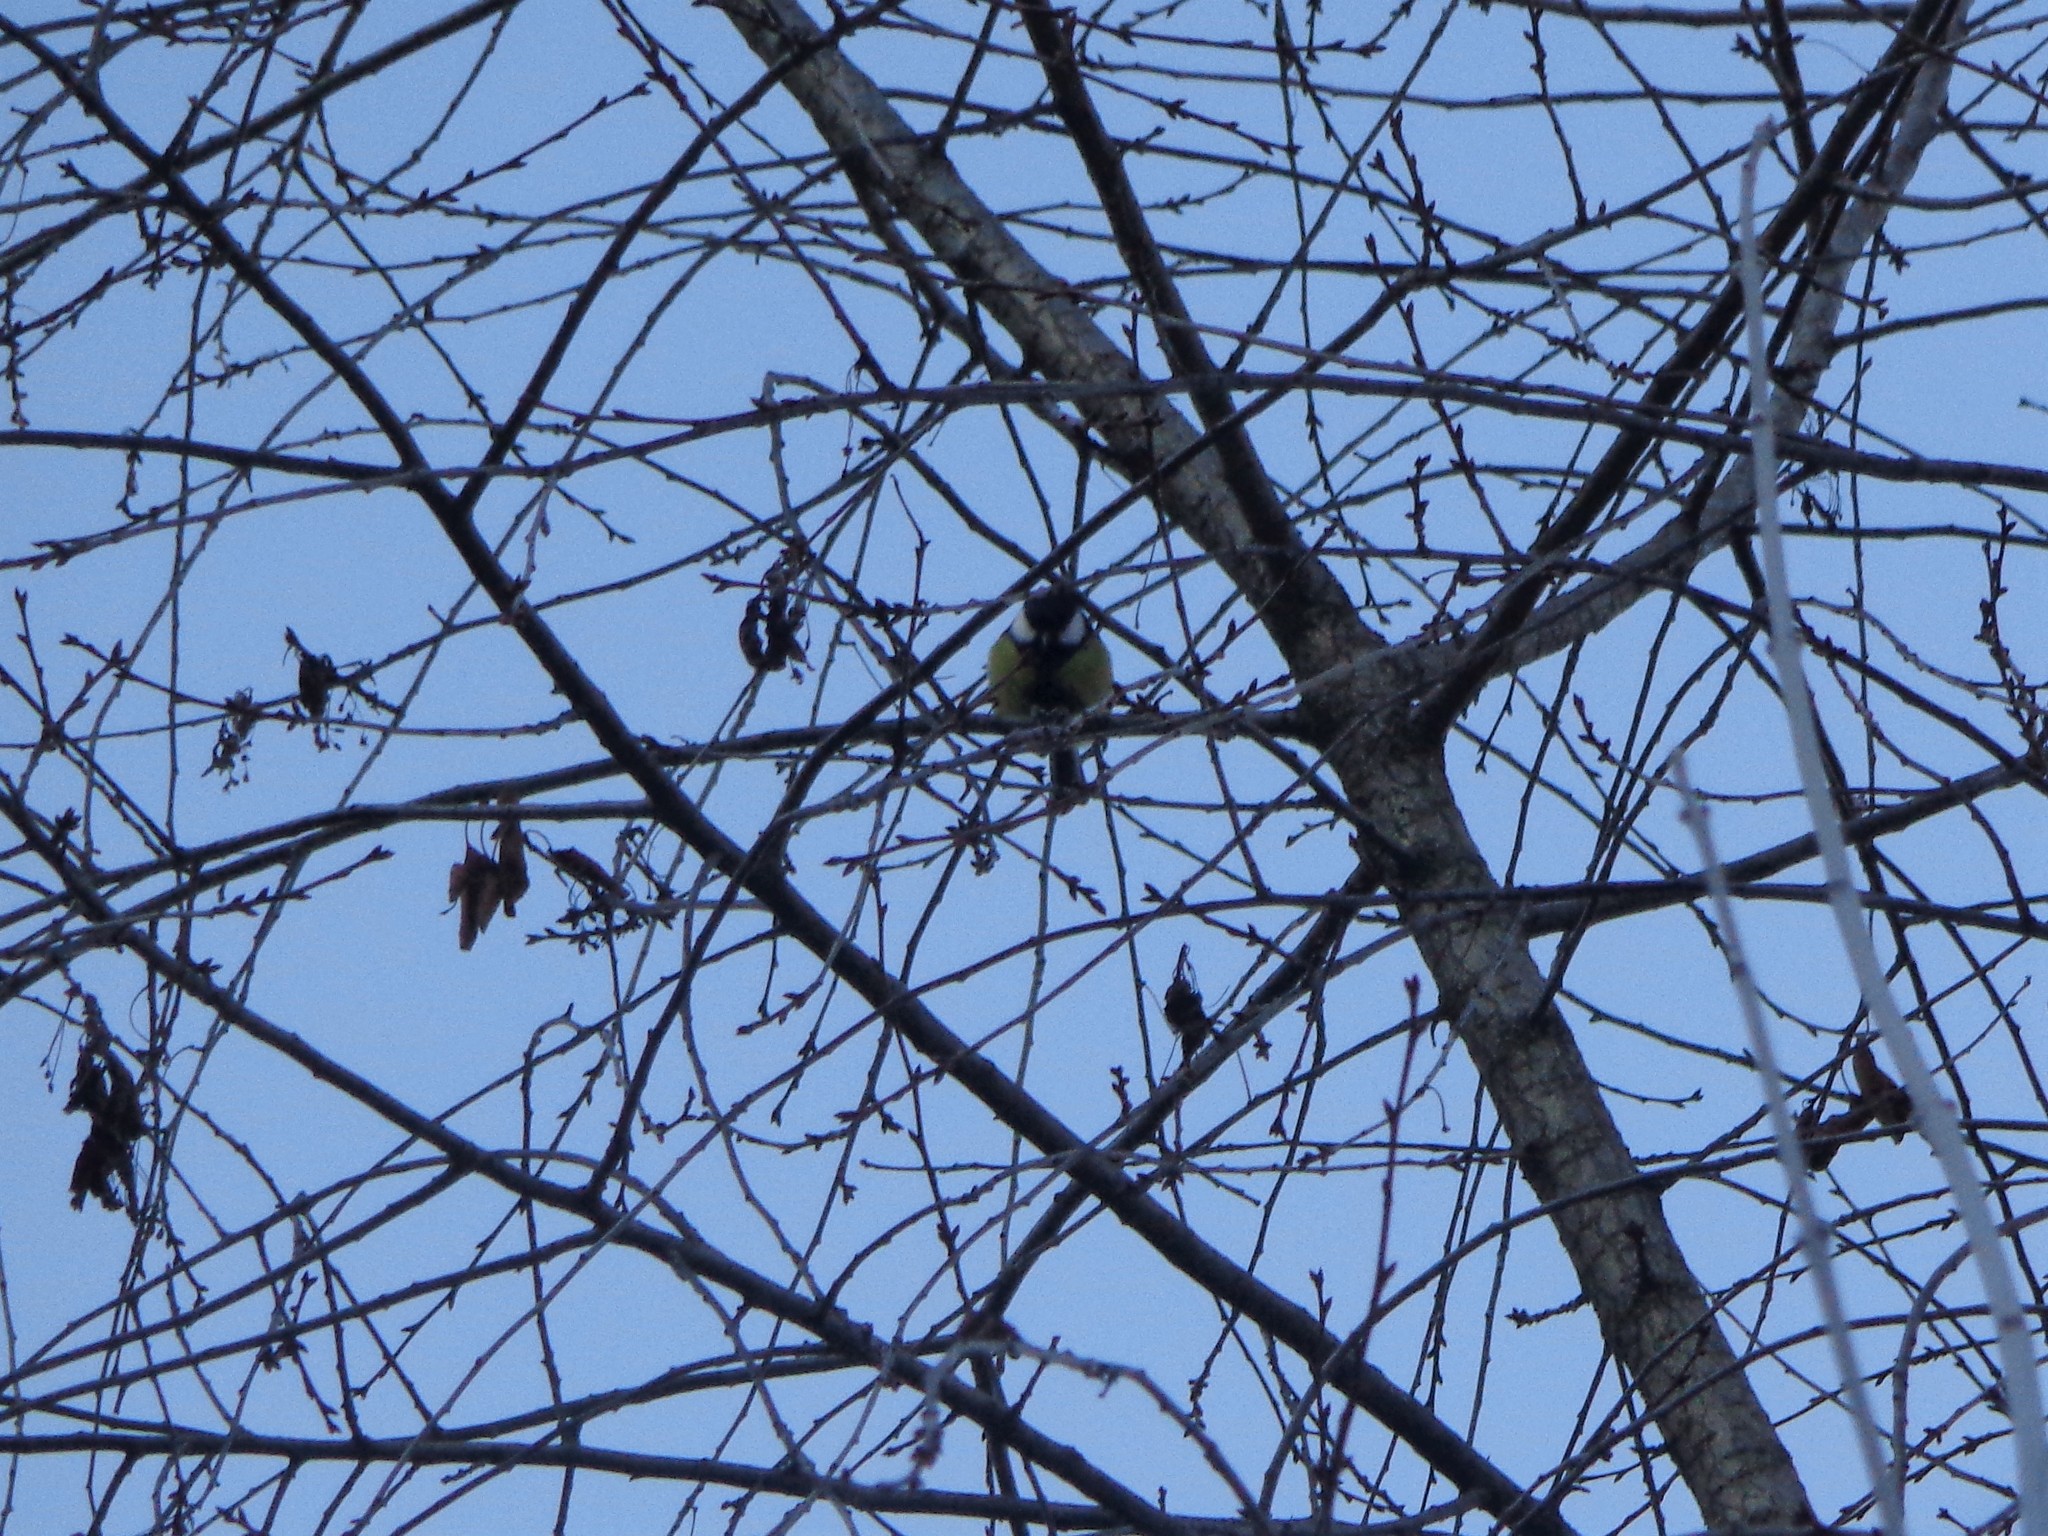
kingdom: Animalia
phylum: Chordata
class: Aves
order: Passeriformes
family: Paridae
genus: Parus
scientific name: Parus major
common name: Great tit
